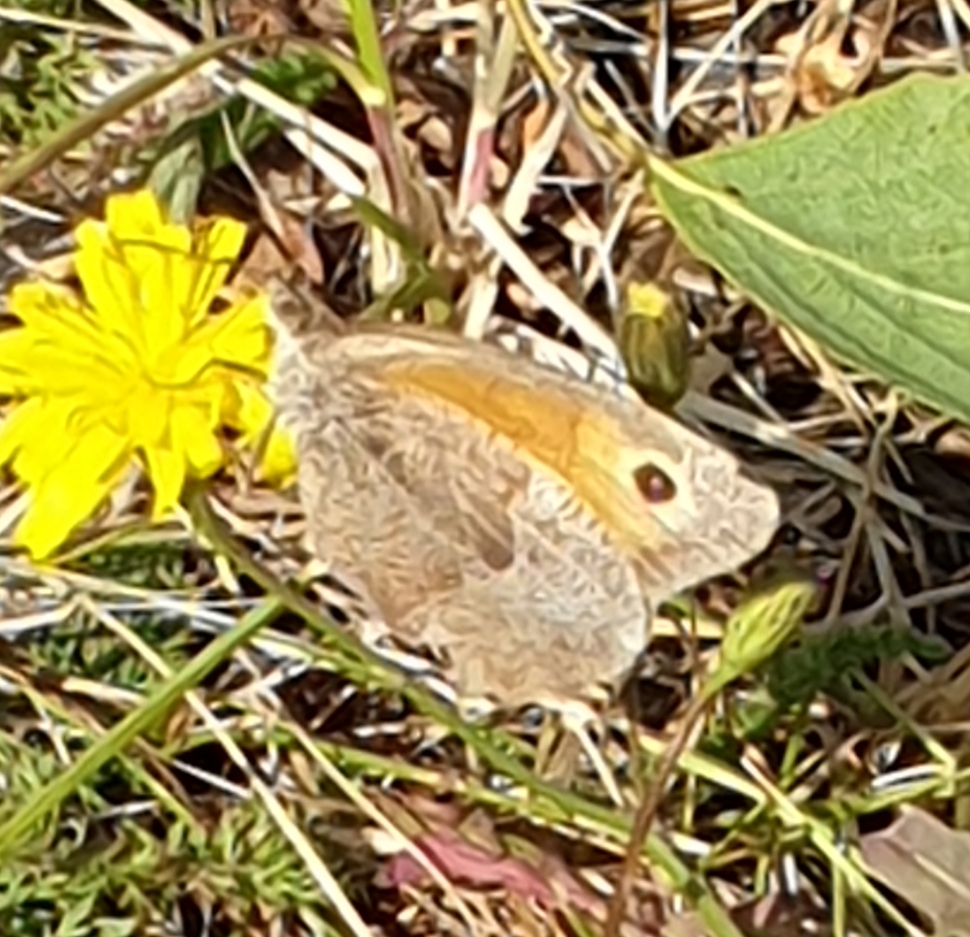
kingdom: Animalia
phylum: Arthropoda
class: Insecta
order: Lepidoptera
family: Nymphalidae
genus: Maniola
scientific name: Maniola jurtina
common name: Meadow brown
